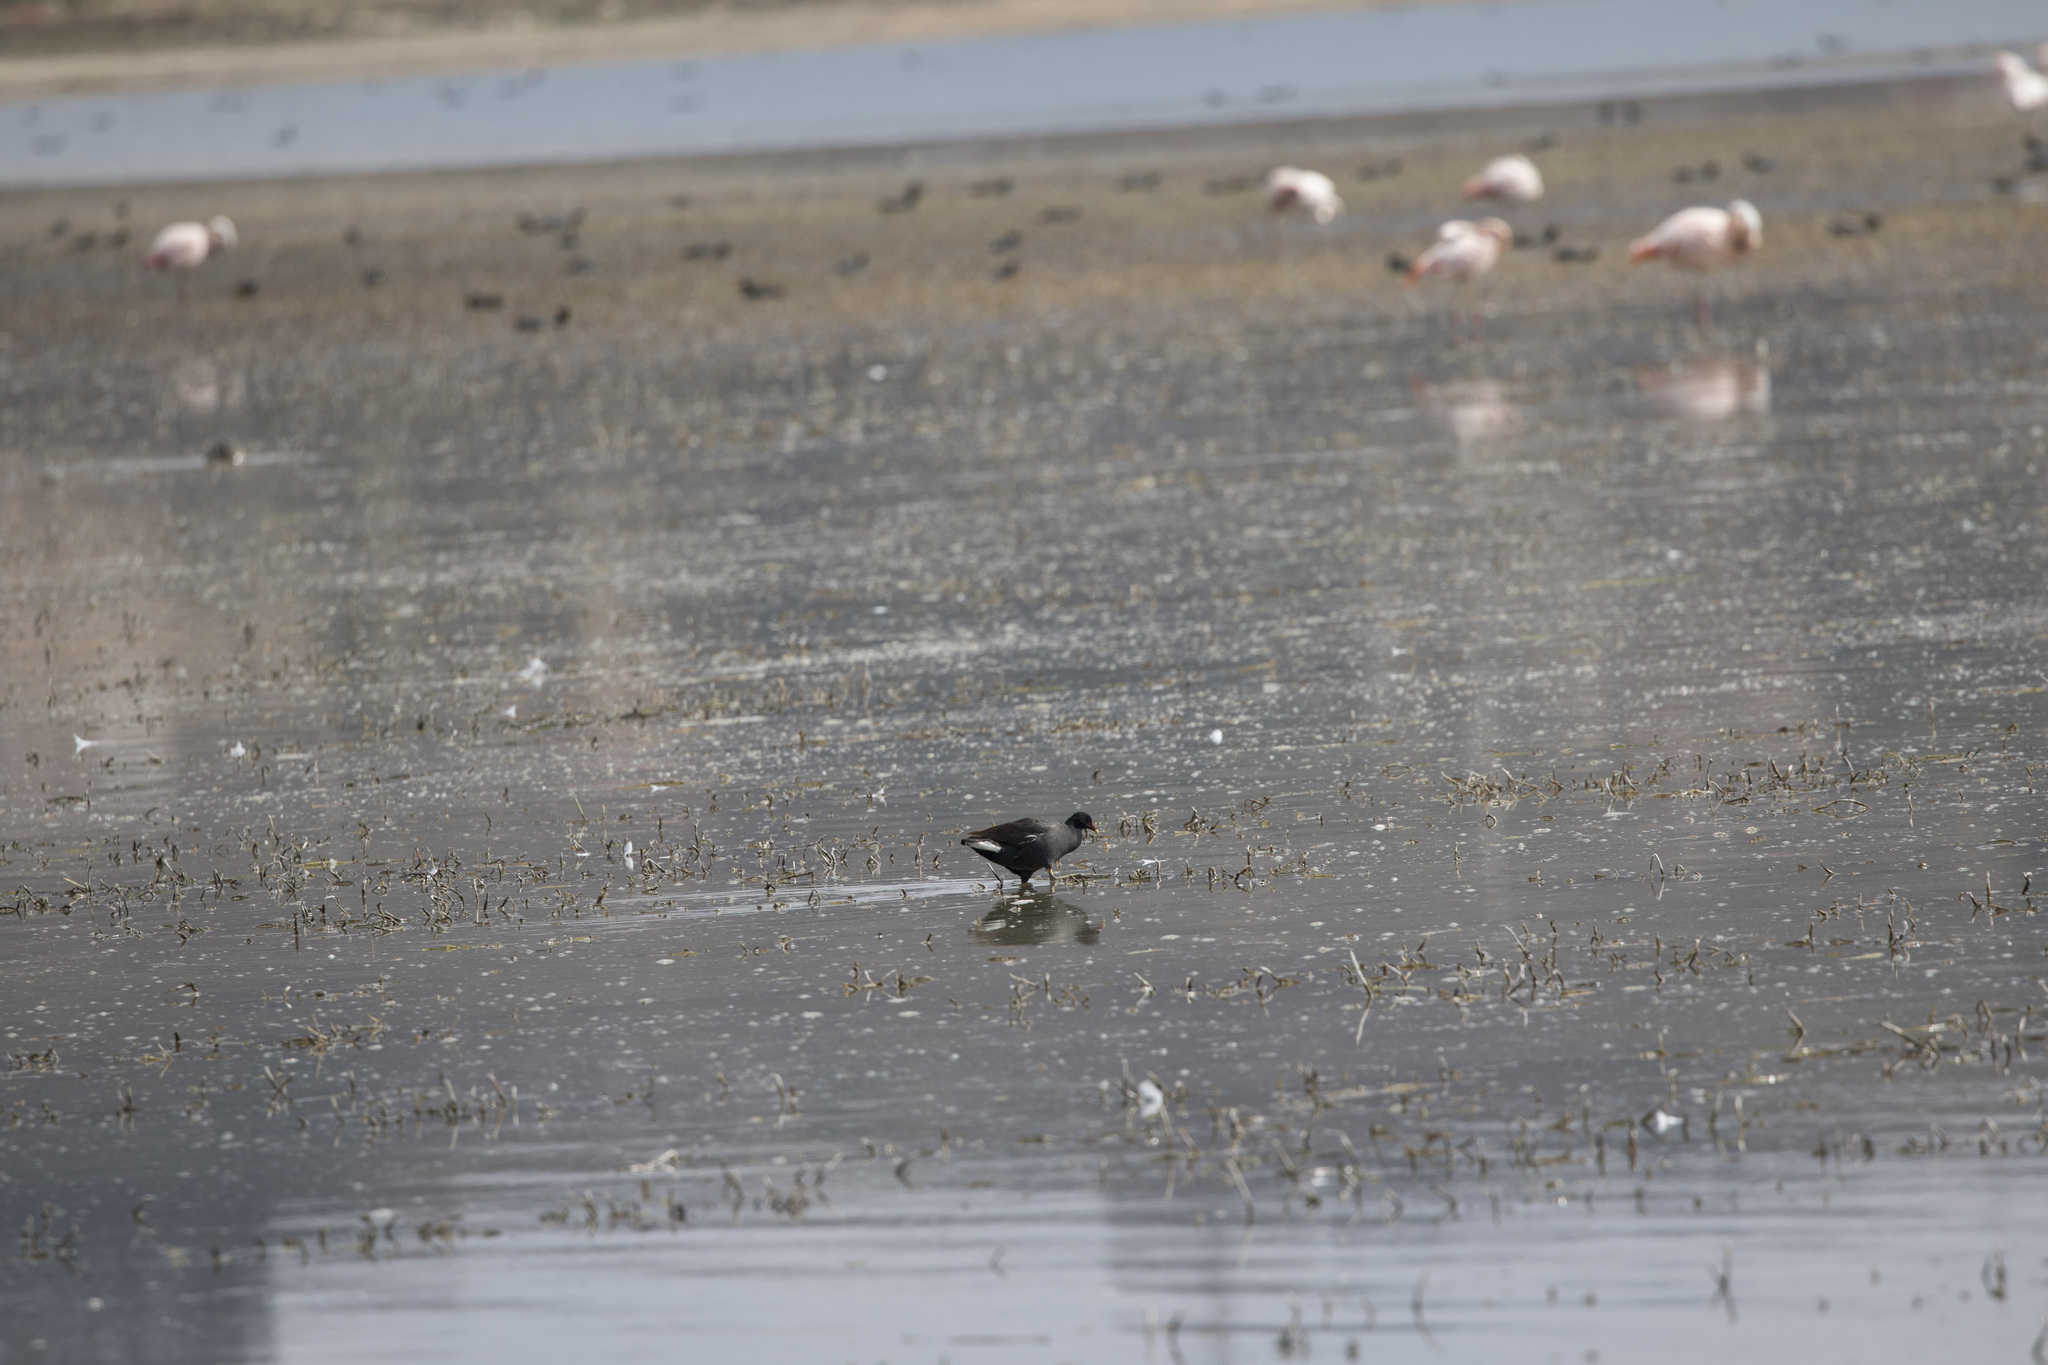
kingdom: Animalia
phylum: Chordata
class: Aves
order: Gruiformes
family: Rallidae
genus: Gallinula
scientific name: Gallinula chloropus
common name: Common moorhen
